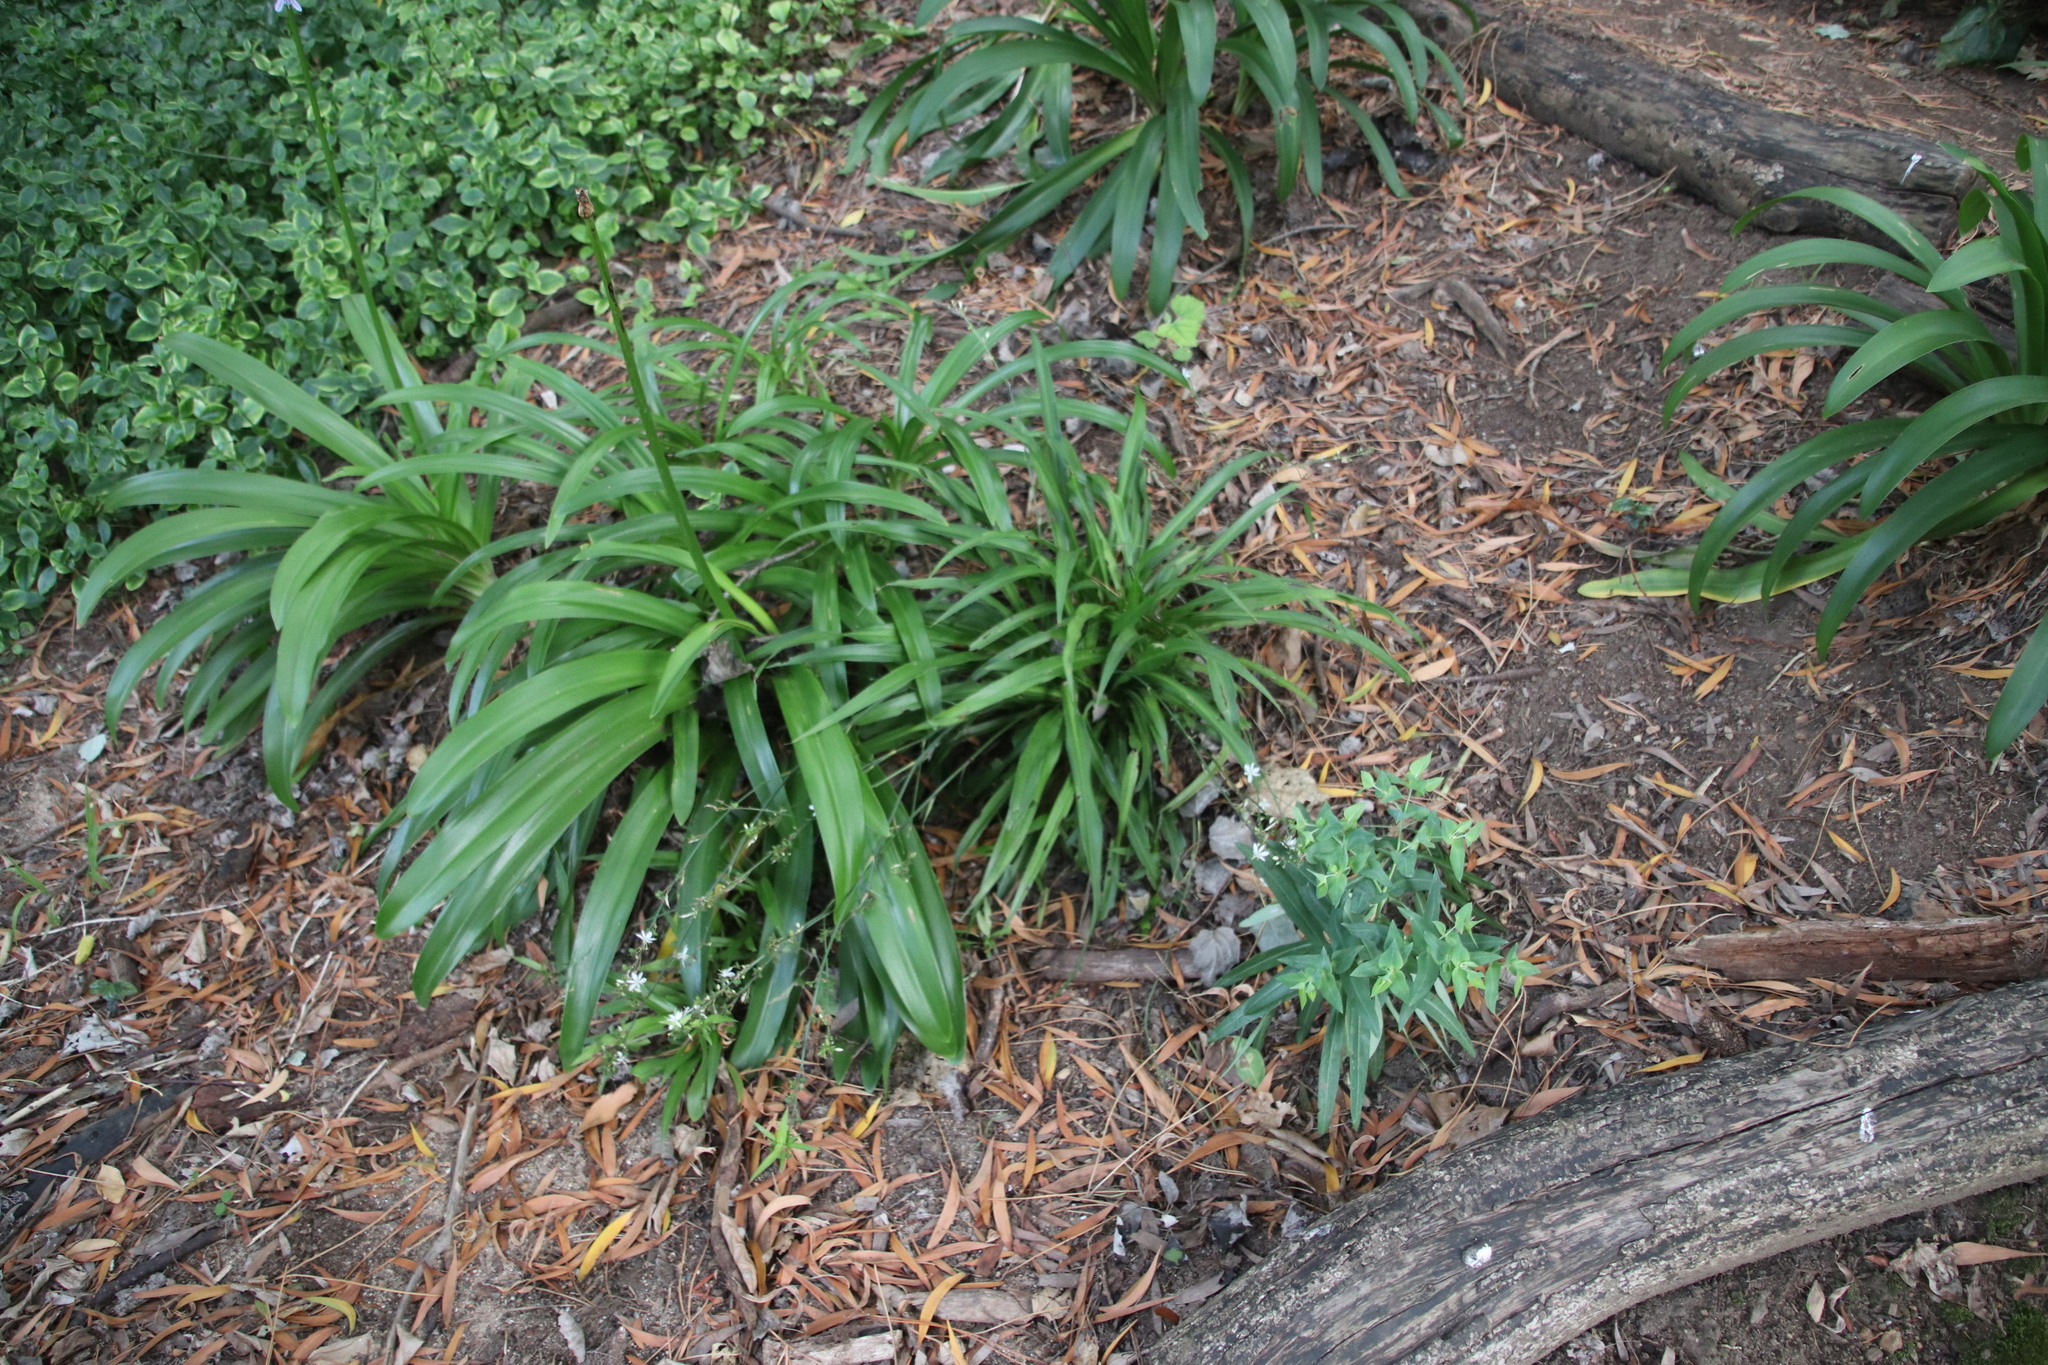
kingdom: Plantae
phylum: Tracheophyta
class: Liliopsida
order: Asparagales
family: Asparagaceae
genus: Chlorophytum
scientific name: Chlorophytum comosum
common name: Spider plant
